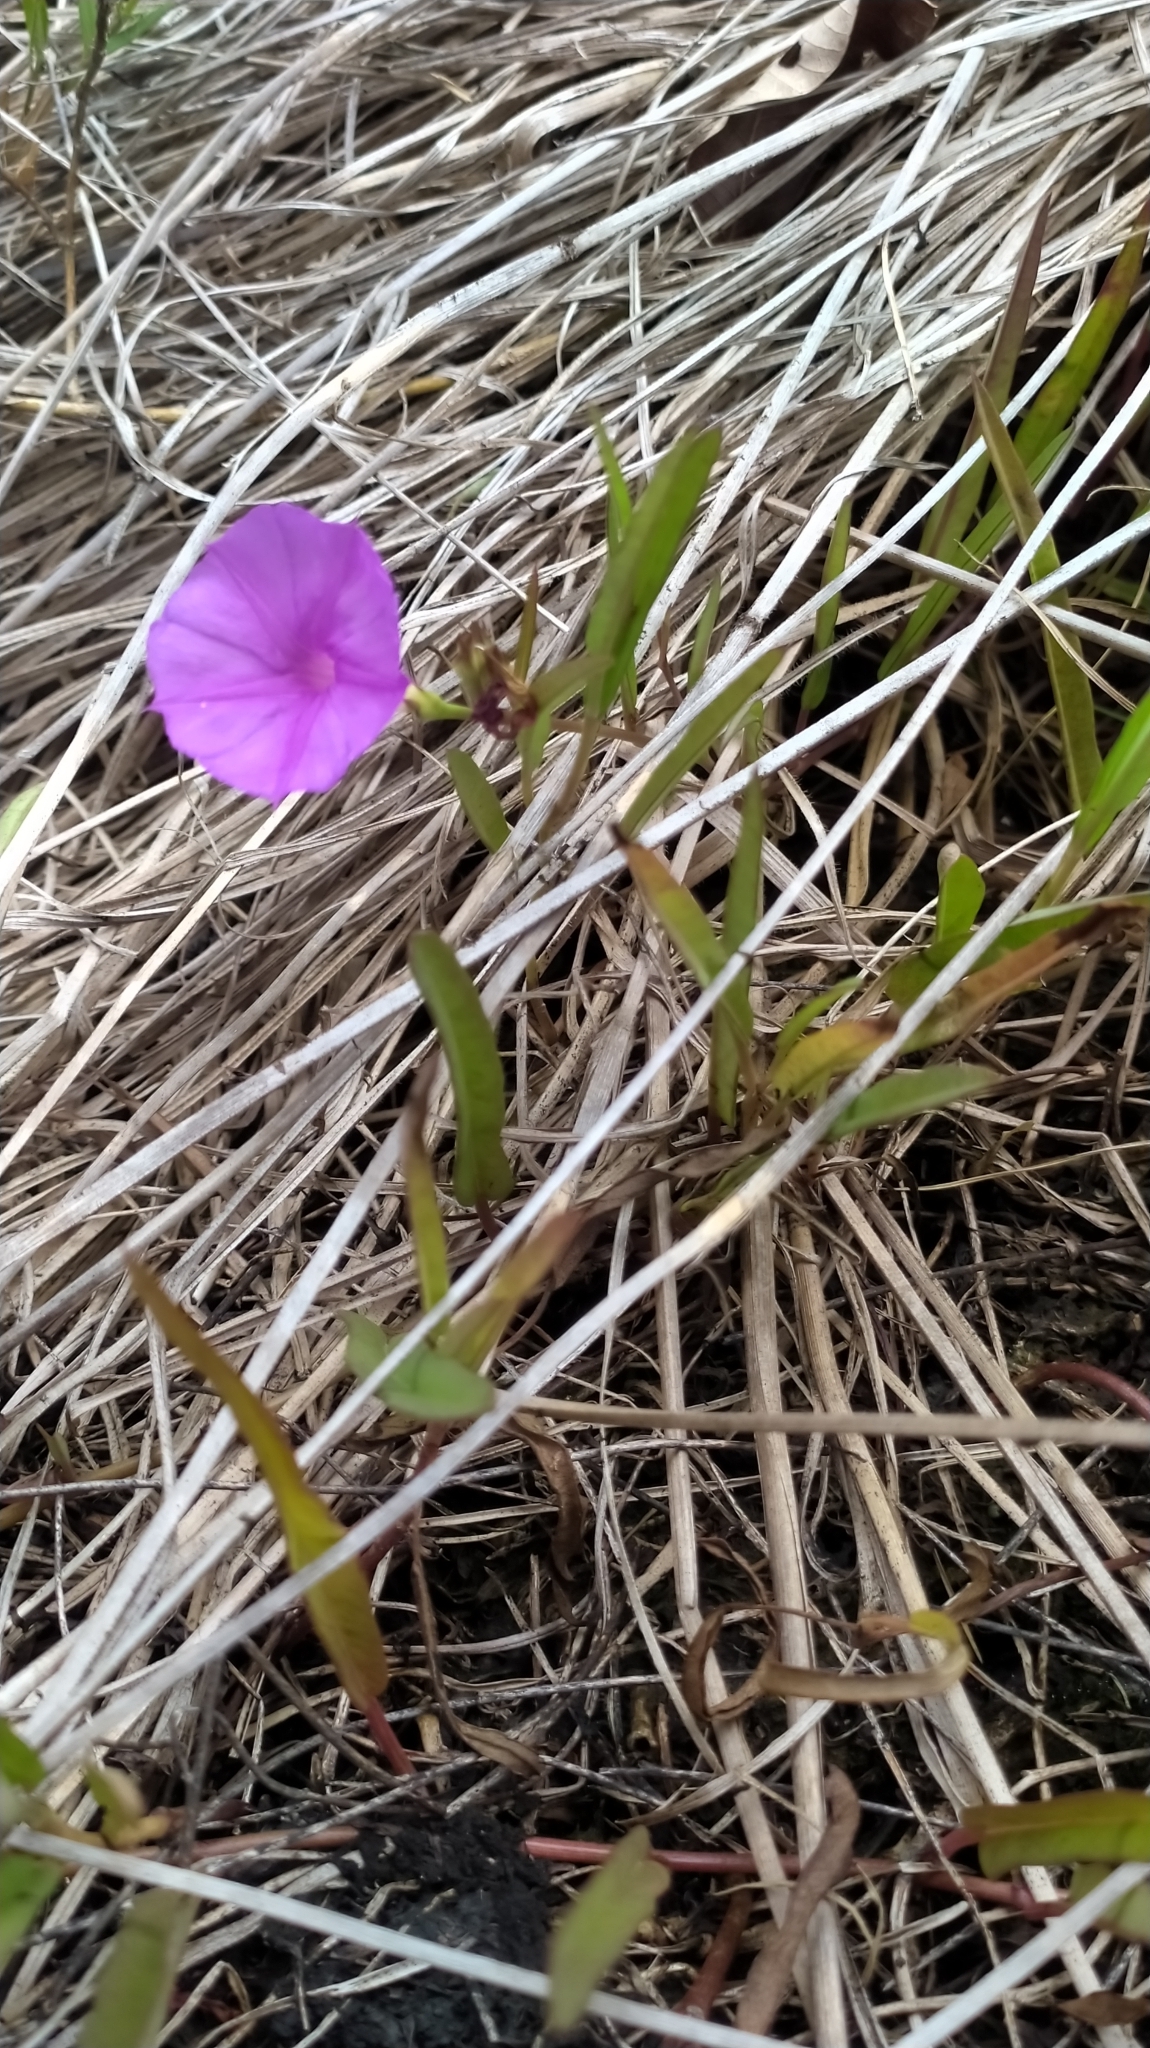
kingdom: Plantae
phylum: Tracheophyta
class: Magnoliopsida
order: Solanales
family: Convolvulaceae
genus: Ipomoea
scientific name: Ipomoea leprieurii
